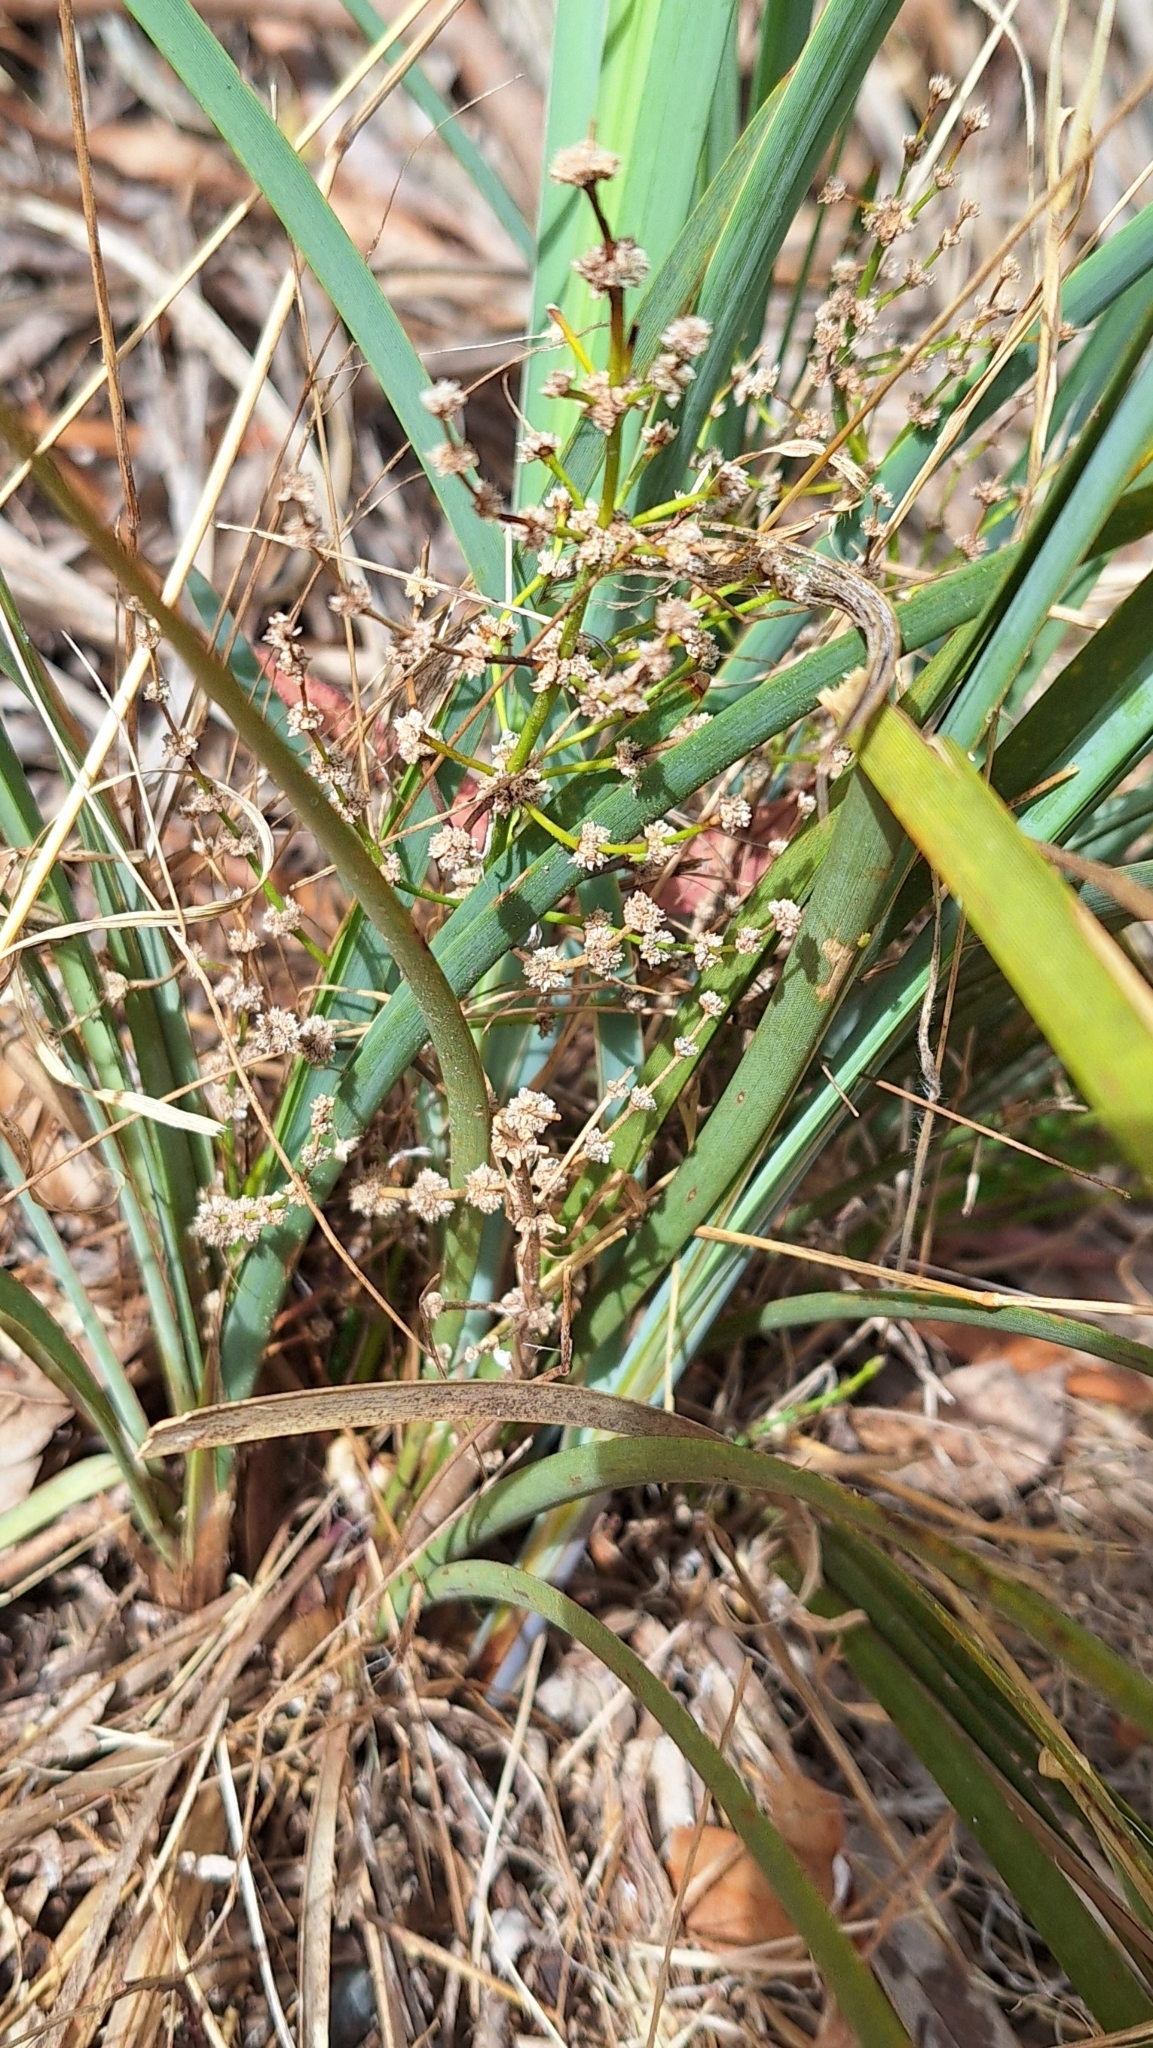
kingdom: Plantae
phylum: Tracheophyta
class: Liliopsida
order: Asparagales
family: Asparagaceae
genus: Lomandra
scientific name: Lomandra multiflora
